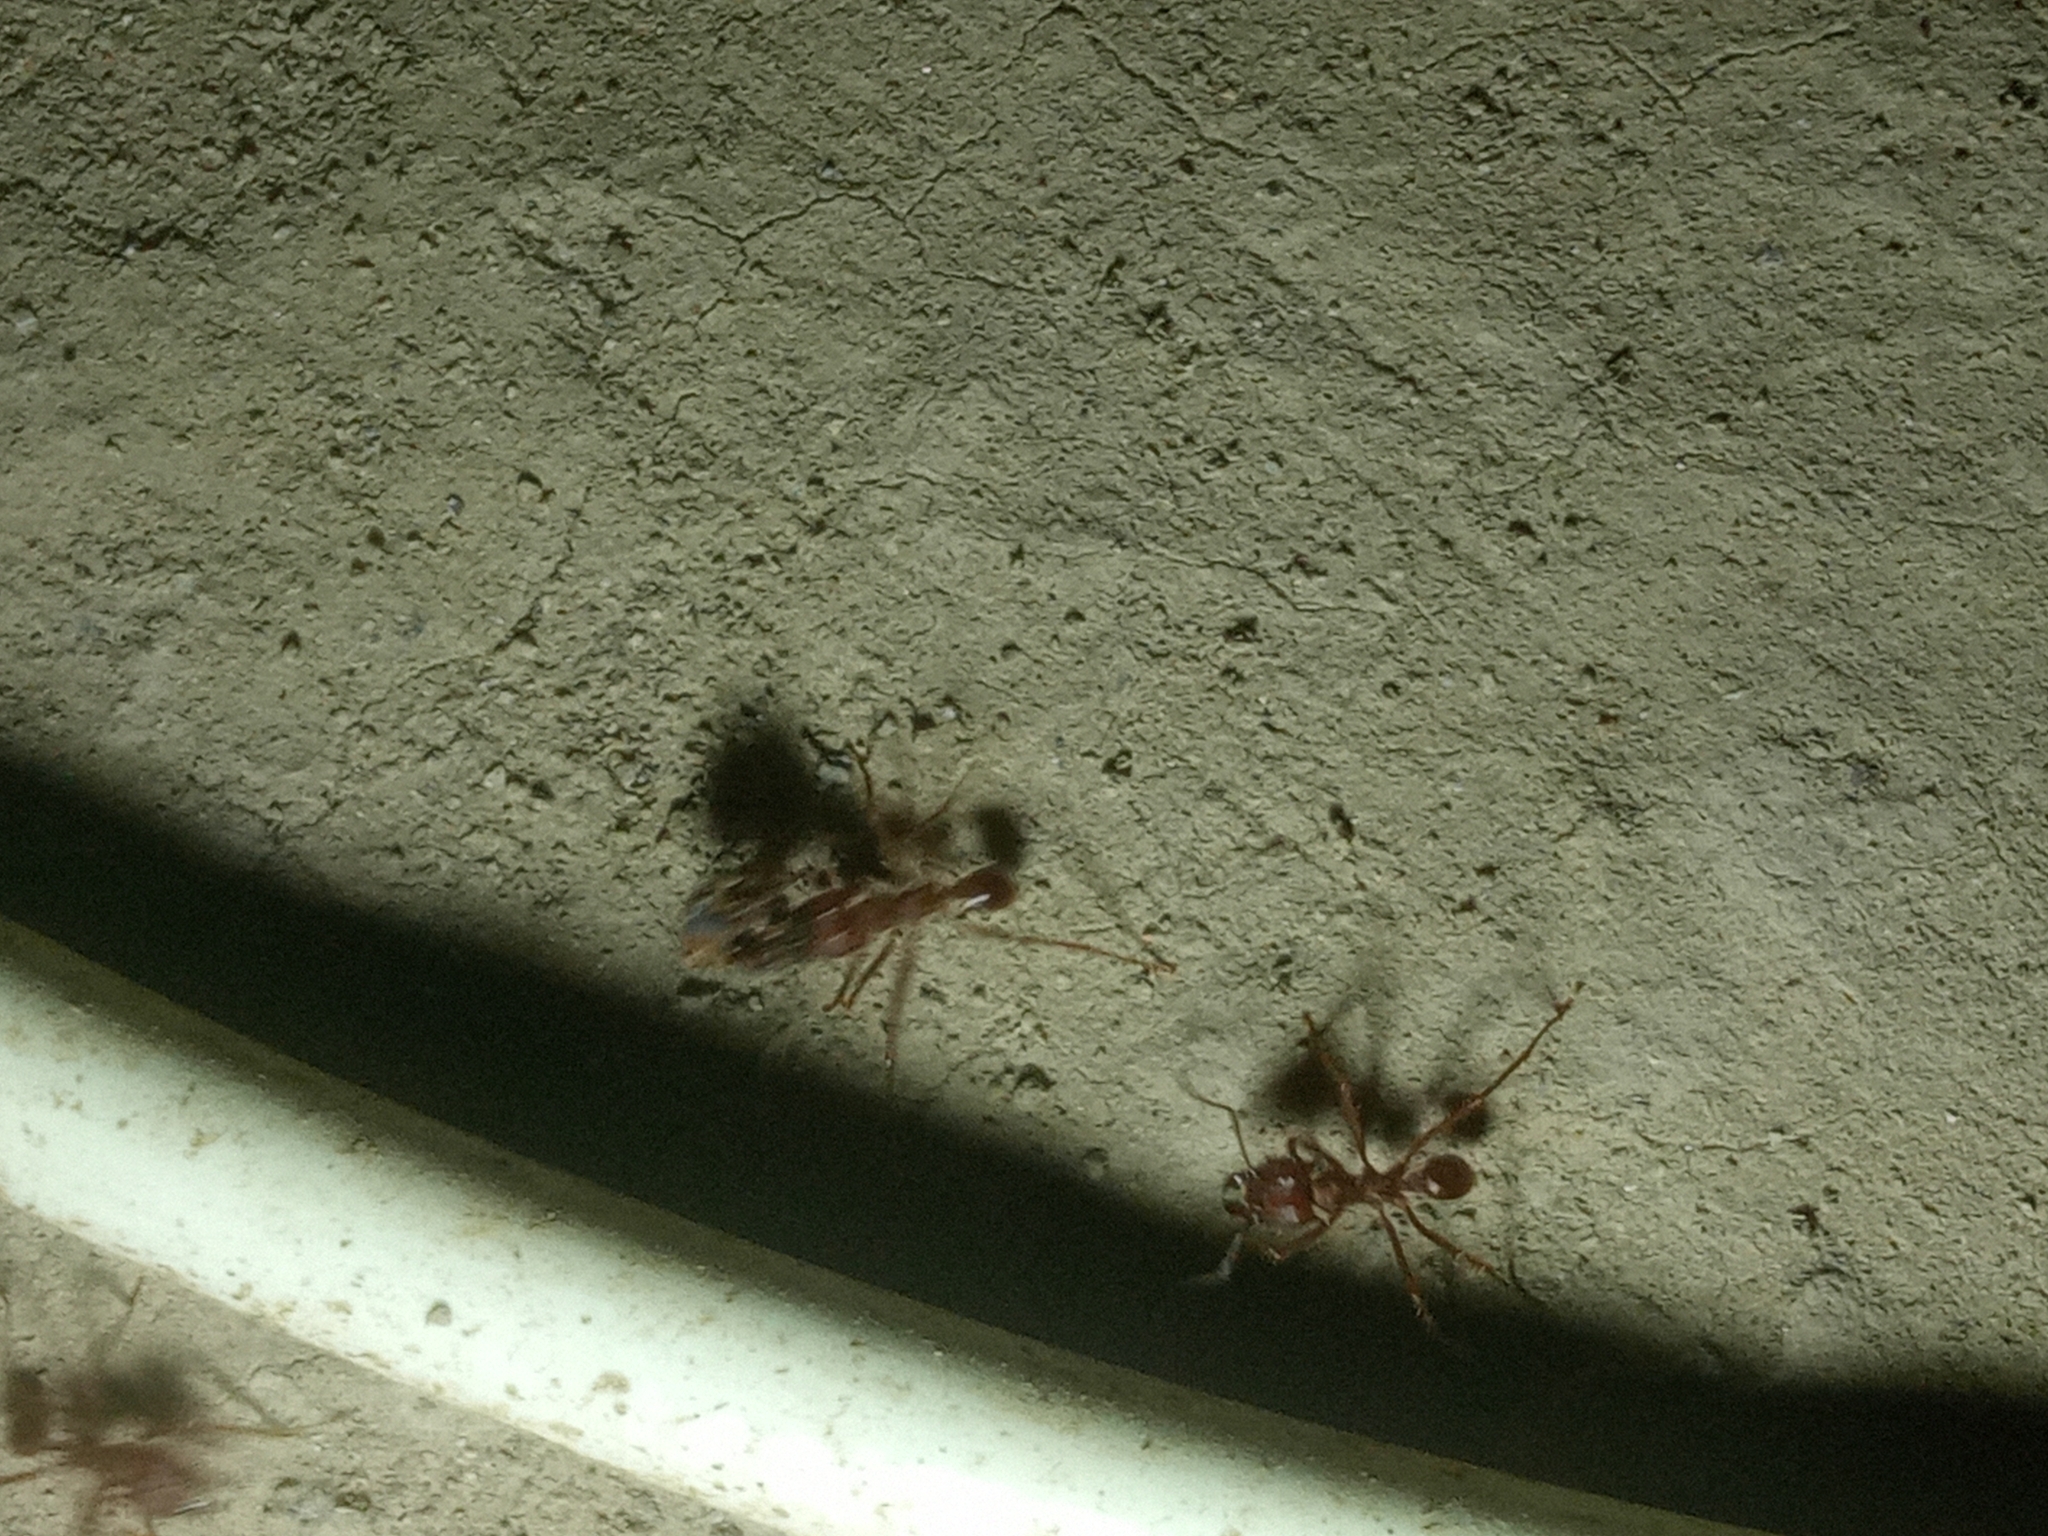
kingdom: Animalia
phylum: Arthropoda
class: Insecta
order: Hymenoptera
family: Formicidae
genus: Atta
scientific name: Atta mexicana
